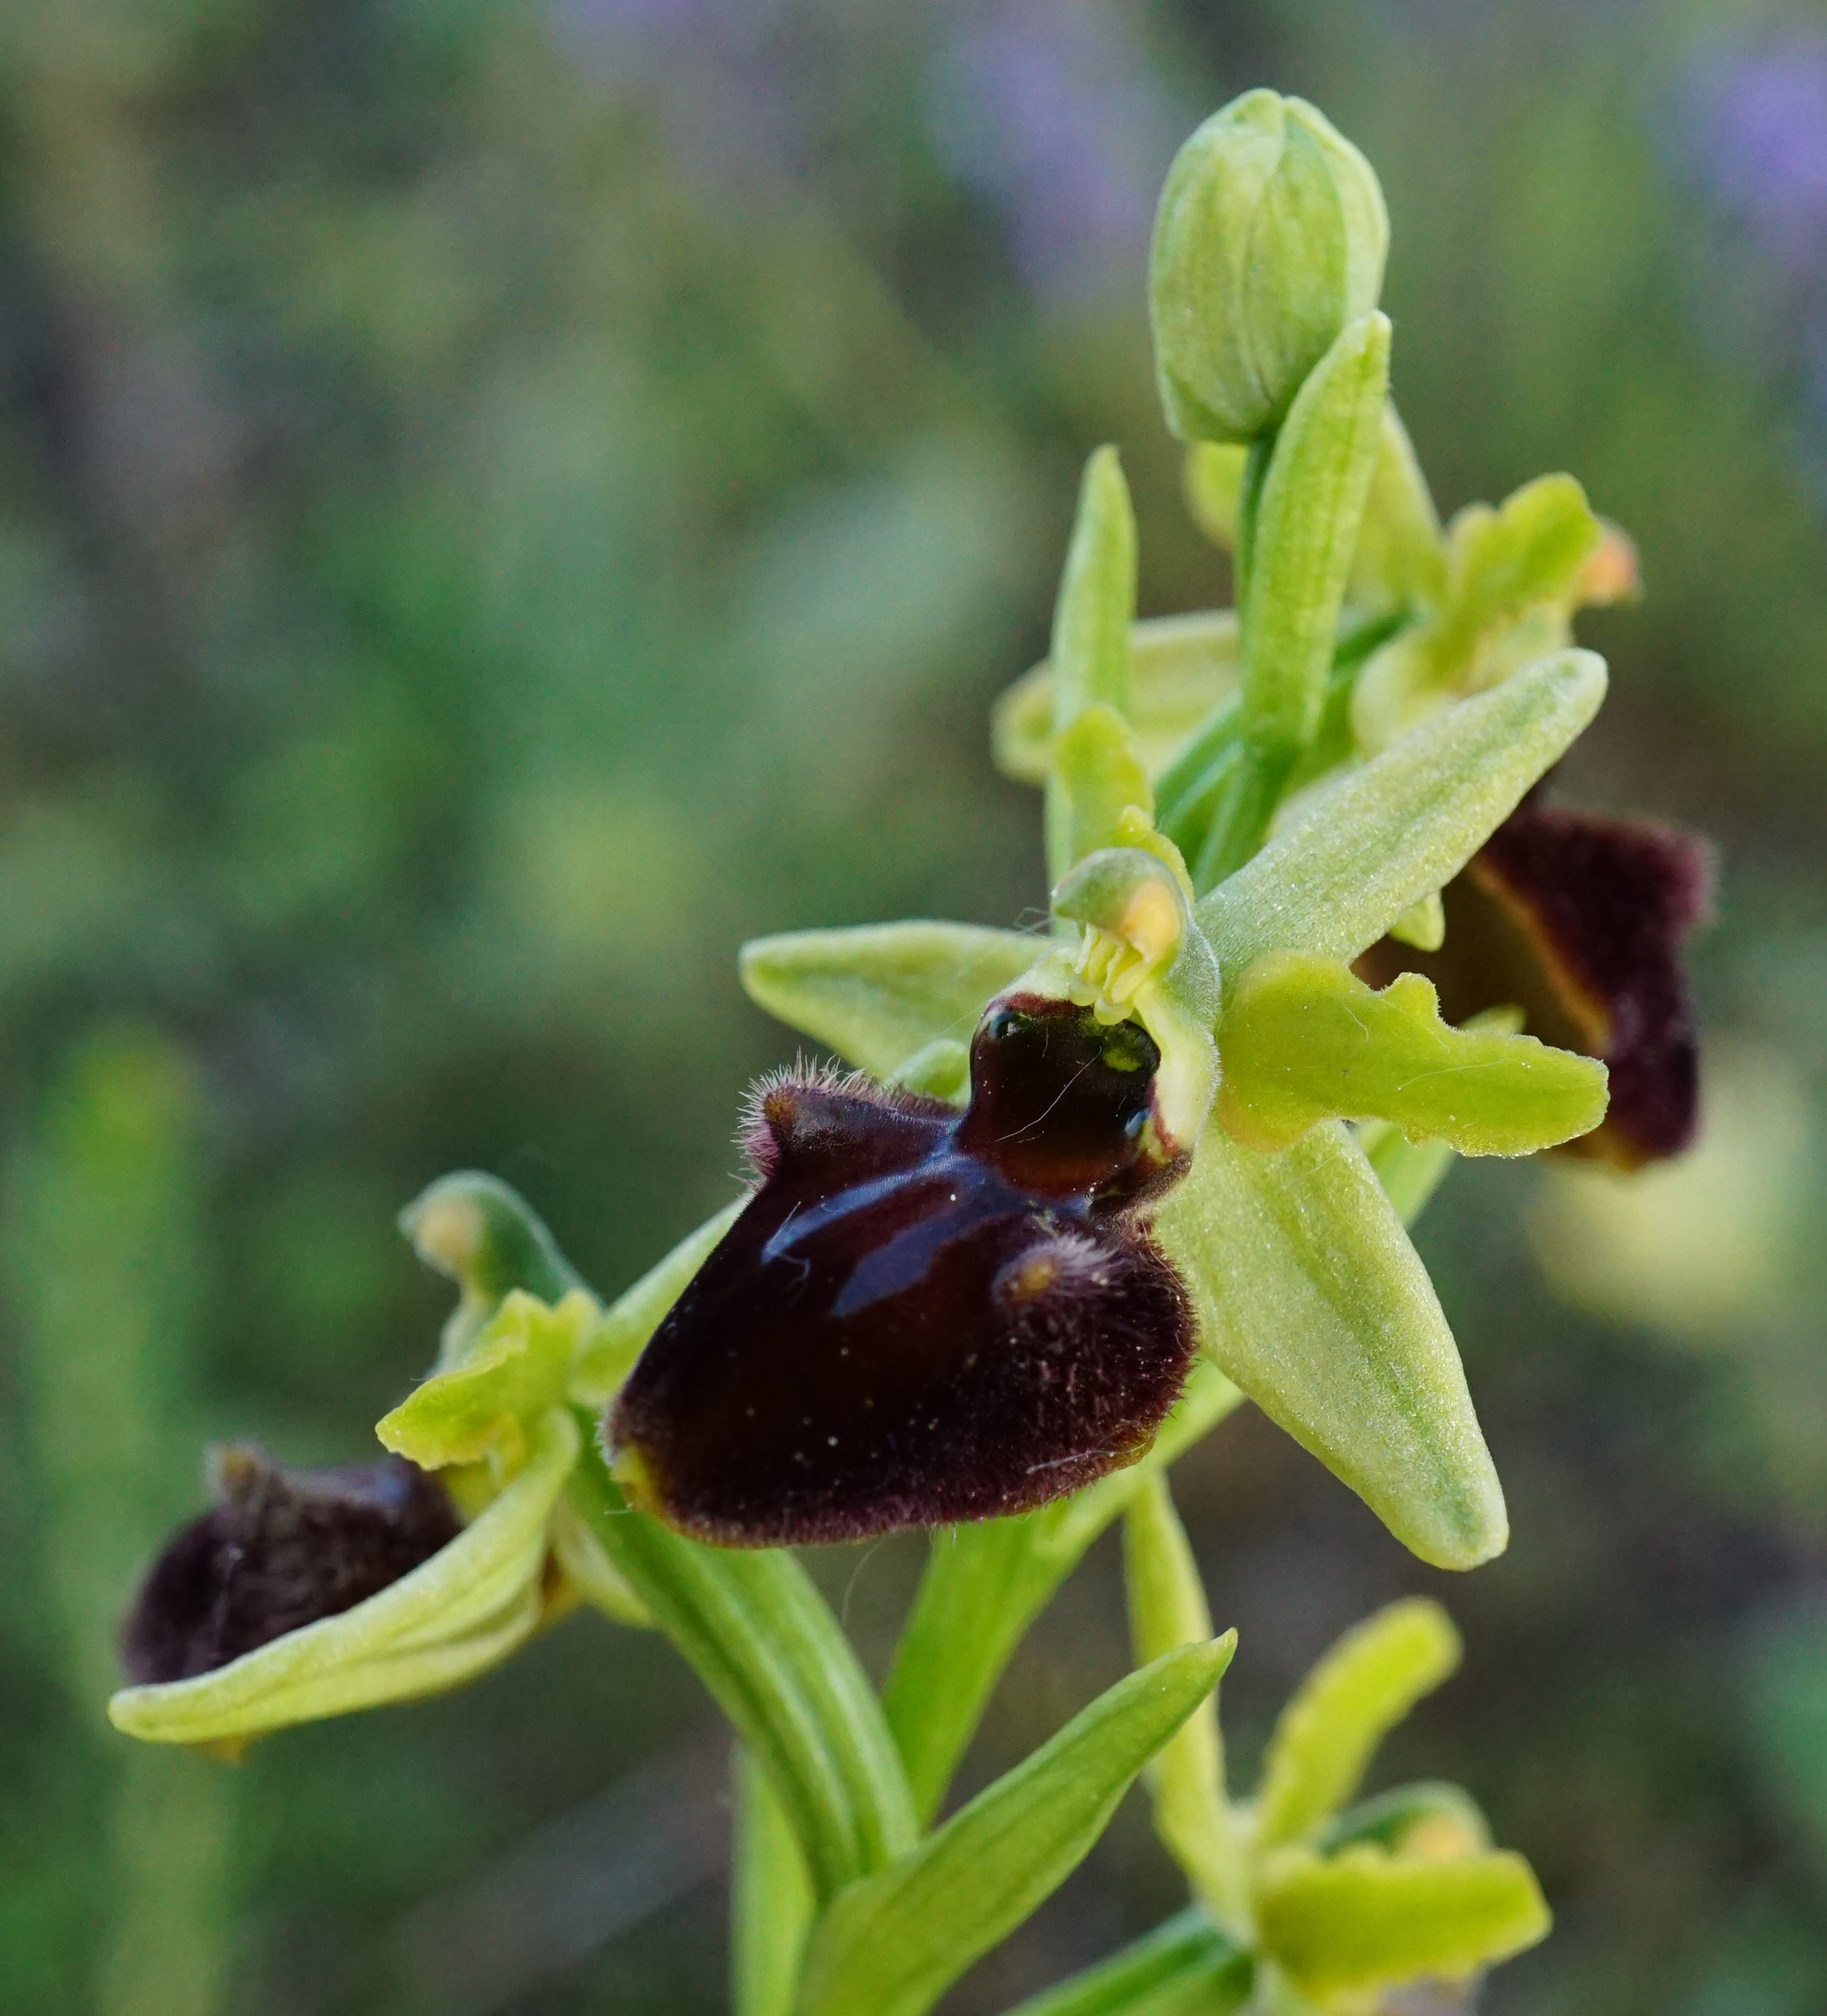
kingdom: Plantae
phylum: Tracheophyta
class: Liliopsida
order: Asparagales
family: Orchidaceae
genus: Ophrys
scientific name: Ophrys sphegodes
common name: Early spider-orchid
